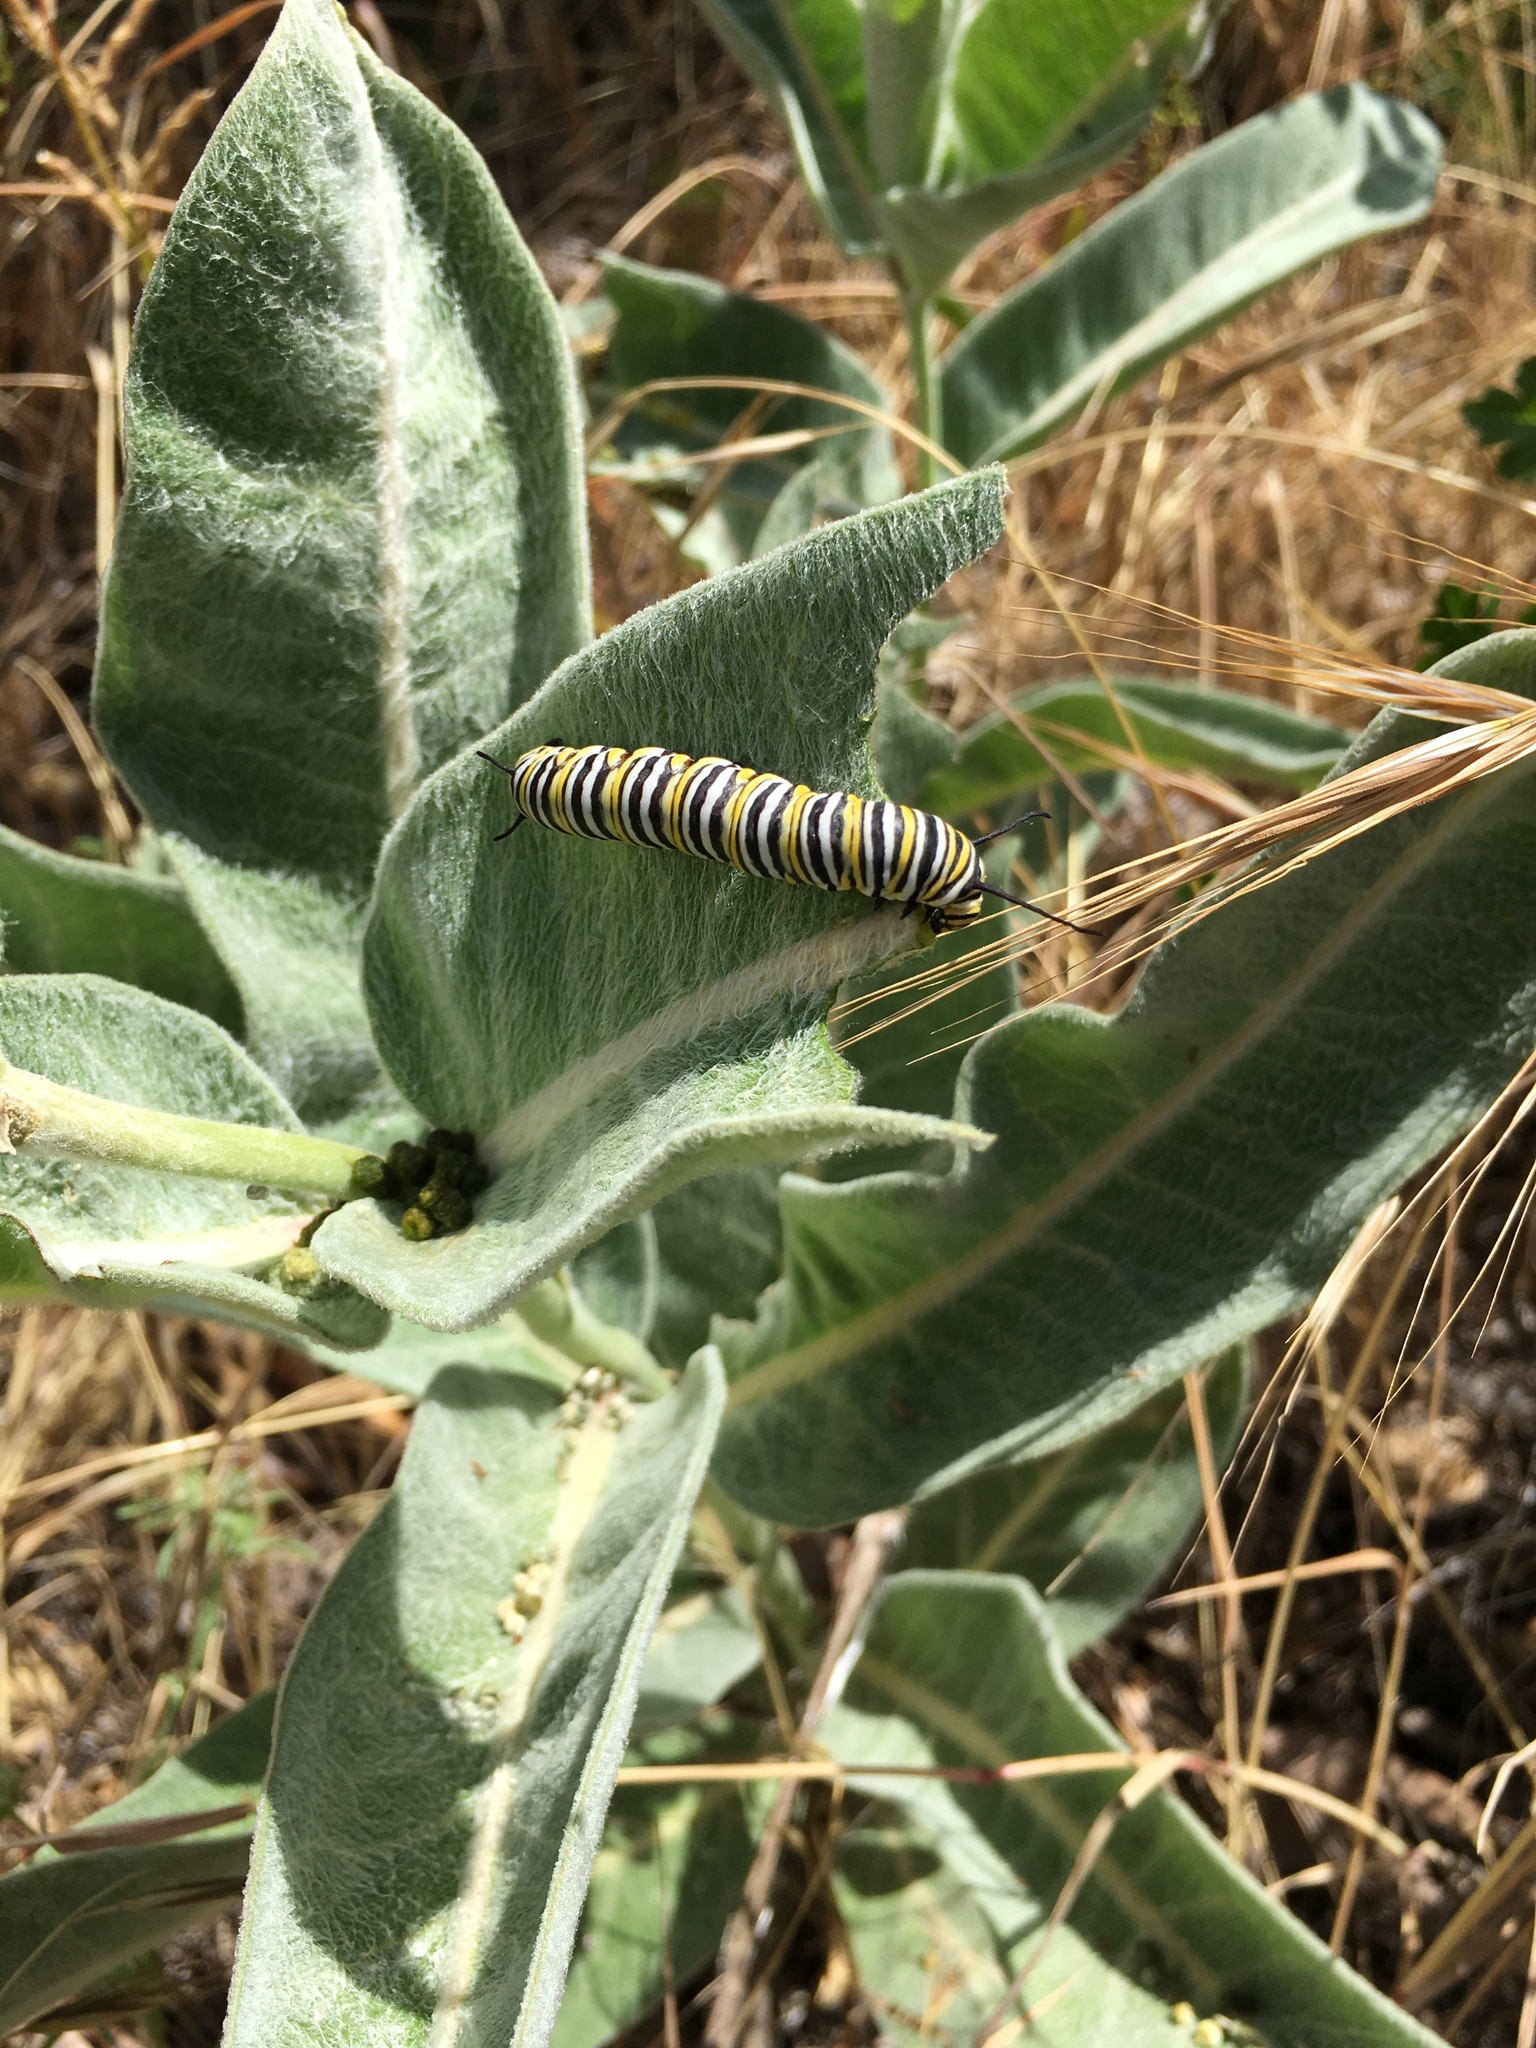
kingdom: Animalia
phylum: Arthropoda
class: Insecta
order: Lepidoptera
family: Nymphalidae
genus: Danaus
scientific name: Danaus plexippus
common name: Monarch
